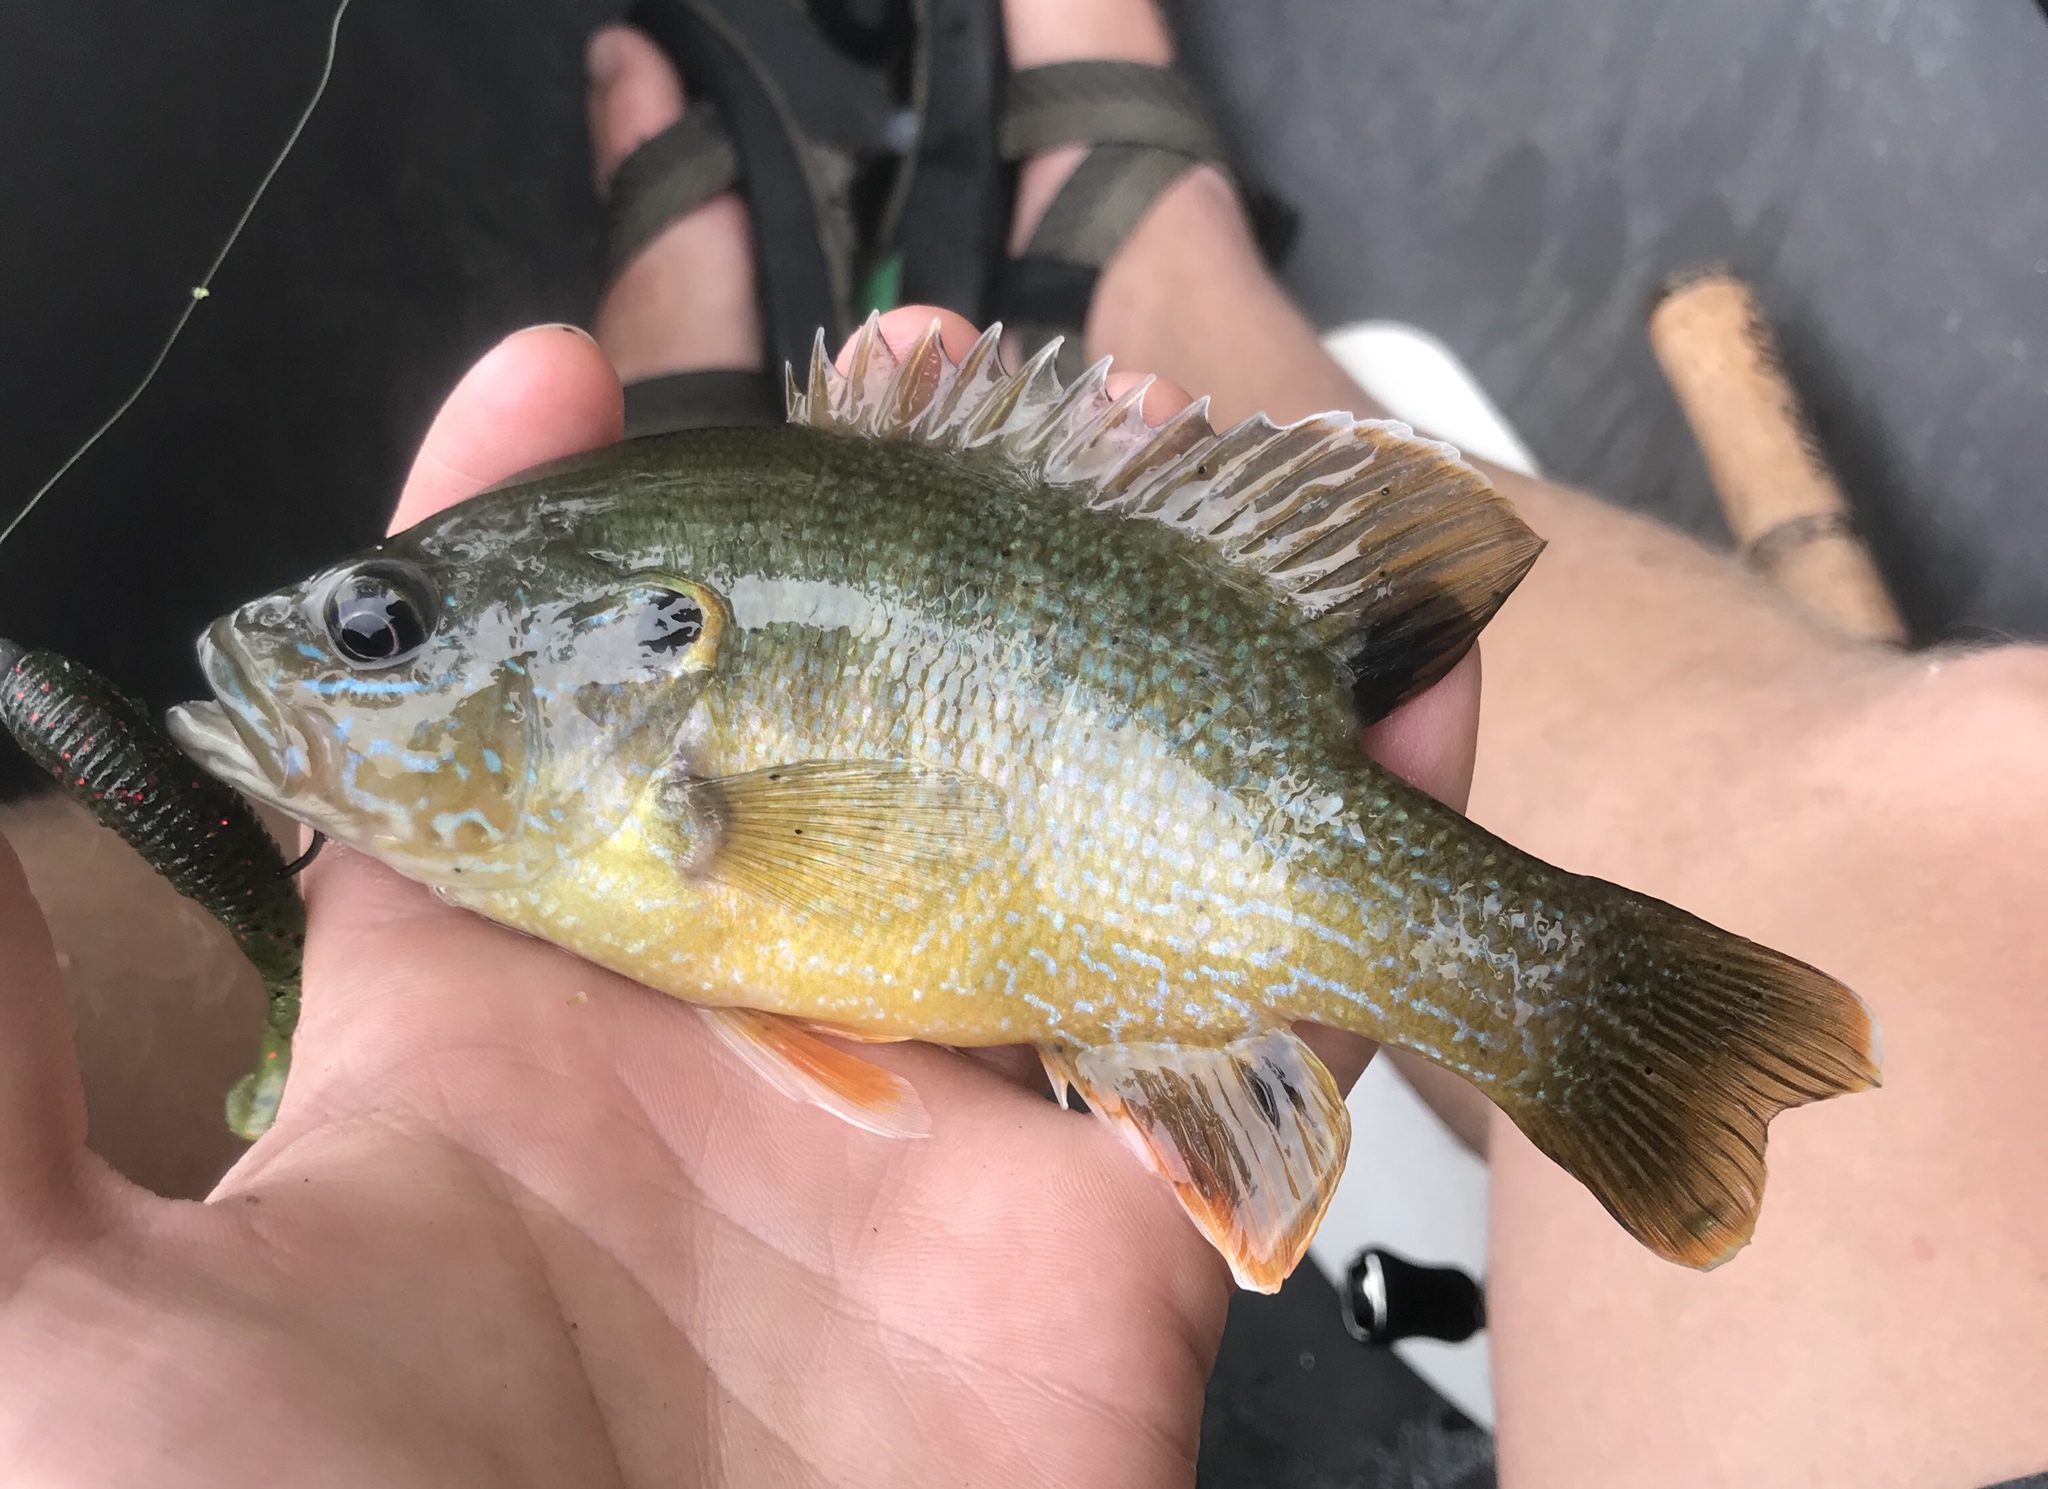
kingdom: Animalia
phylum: Chordata
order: Perciformes
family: Centrarchidae
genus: Lepomis
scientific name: Lepomis cyanellus
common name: Green sunfish
